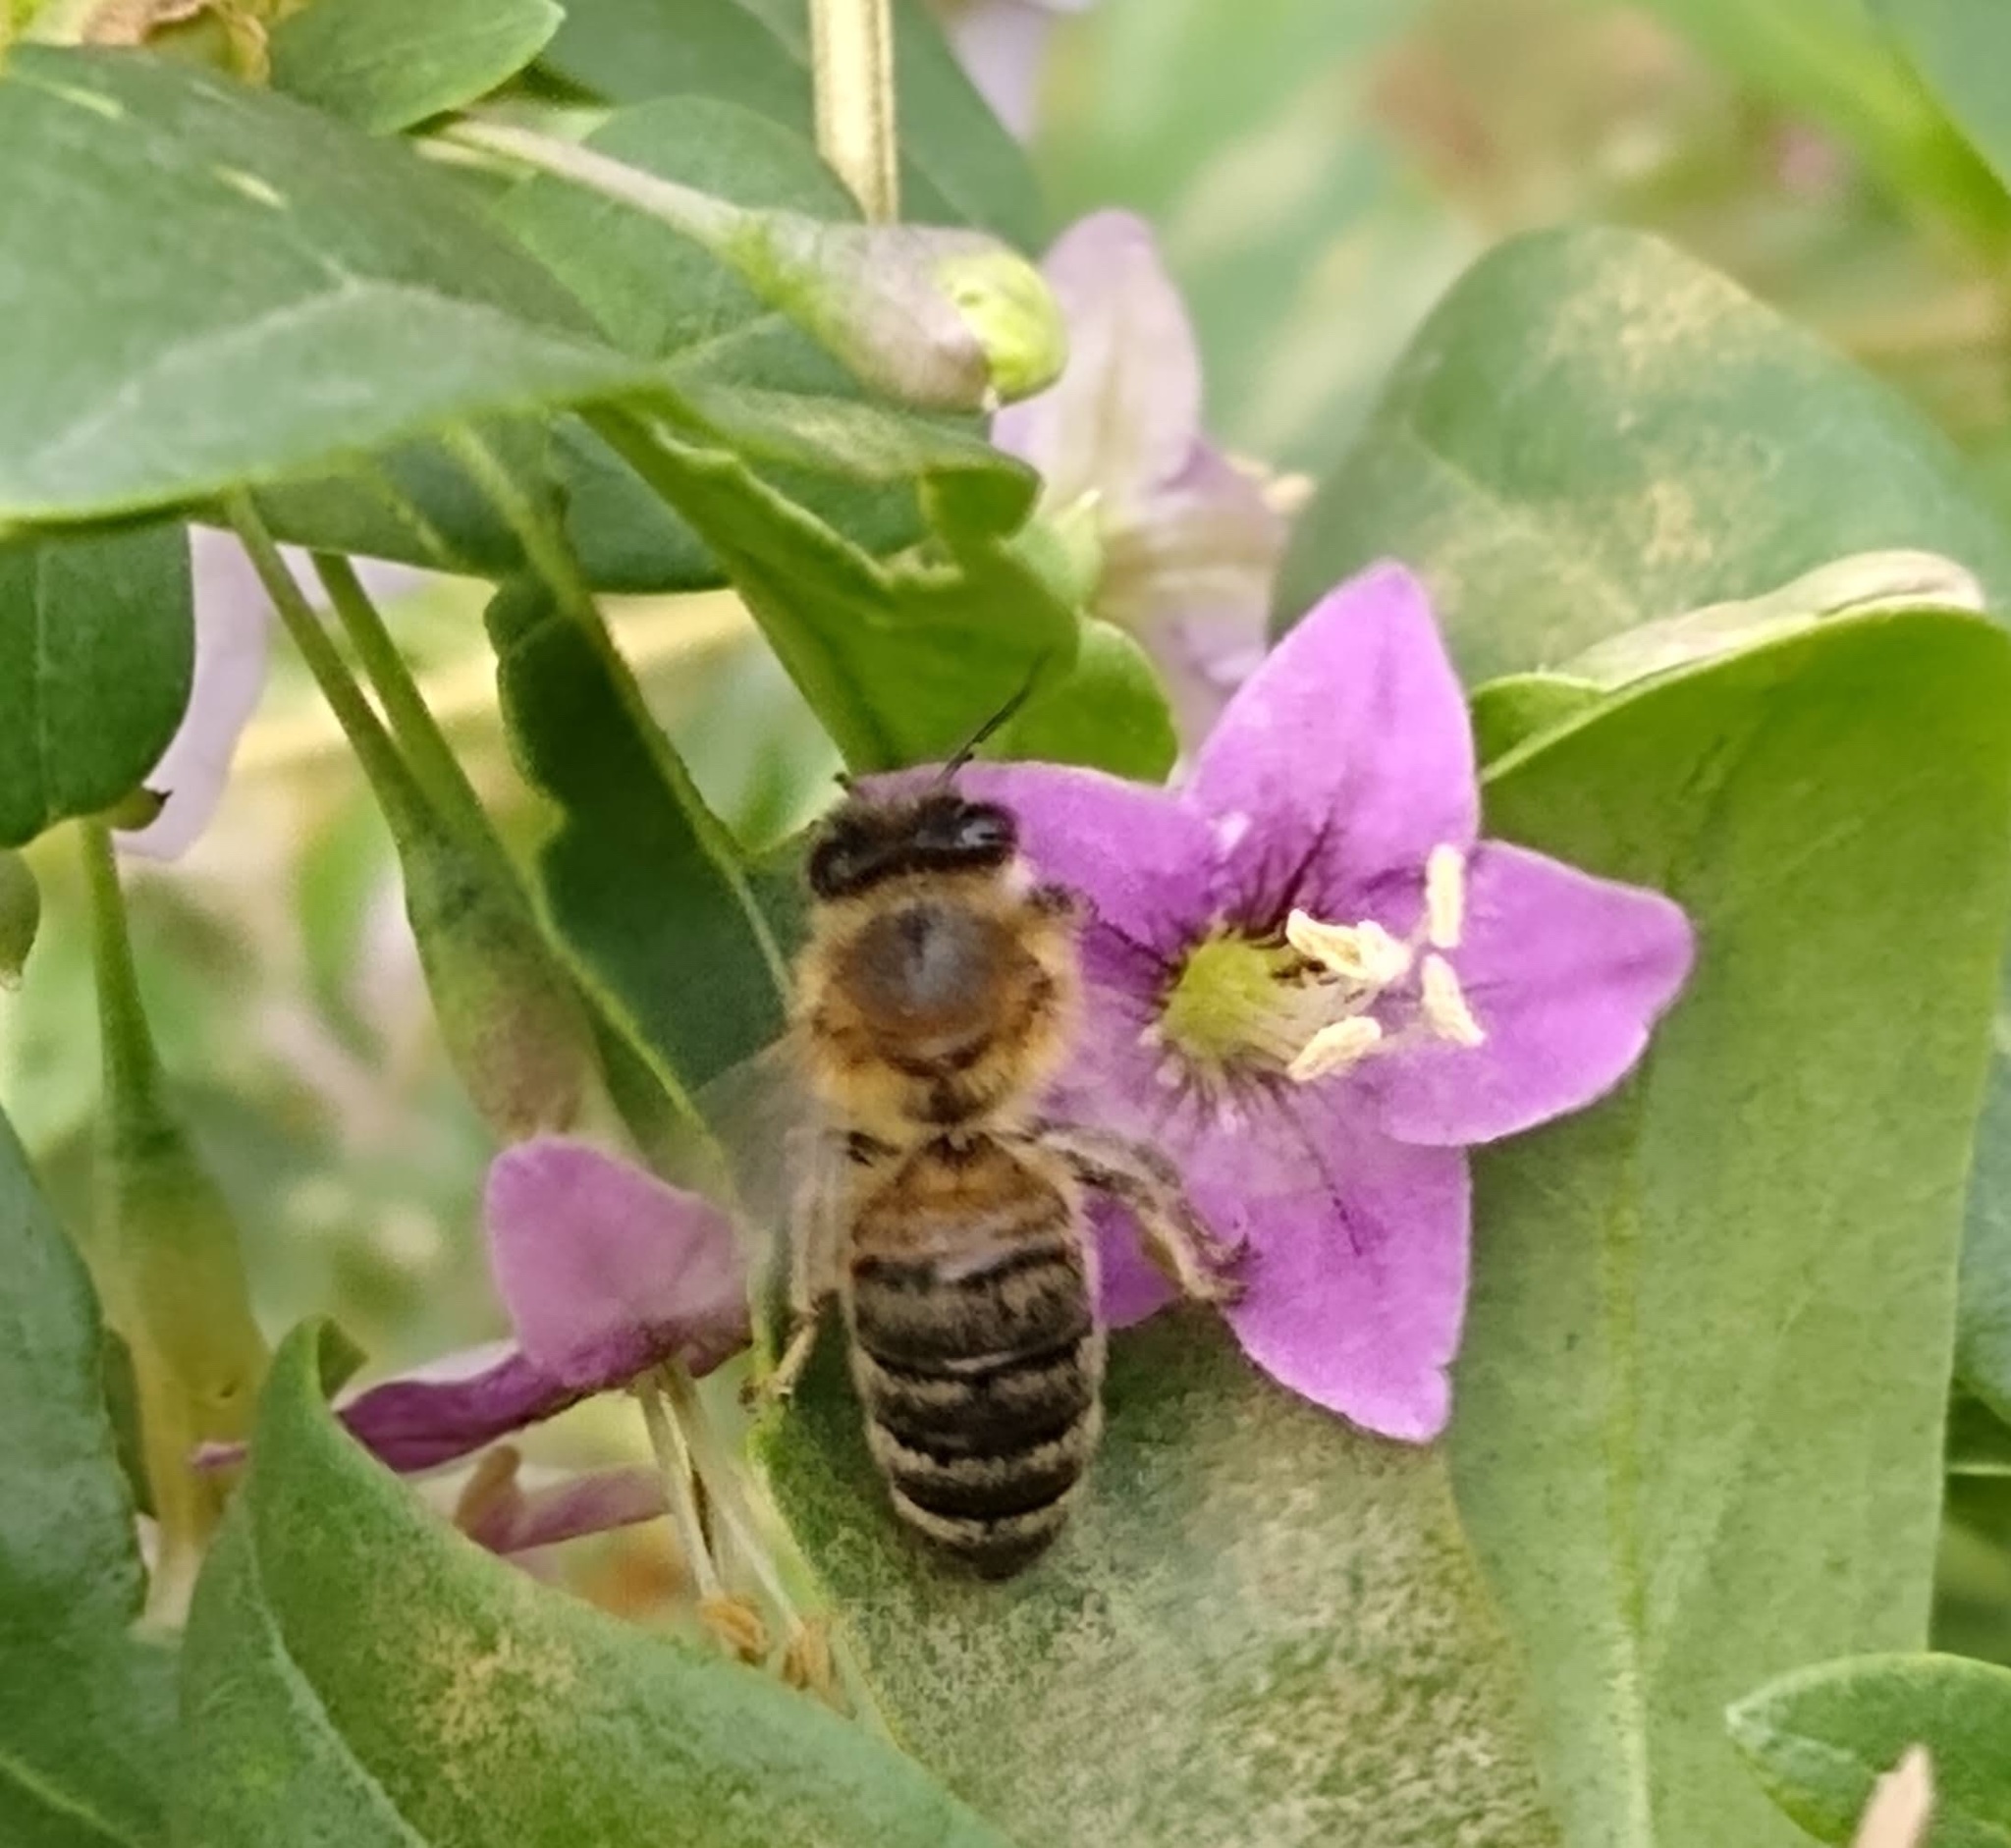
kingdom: Plantae
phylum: Tracheophyta
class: Magnoliopsida
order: Solanales
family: Solanaceae
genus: Lycium
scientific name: Lycium barbarum
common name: Duke of argyll's teaplant
